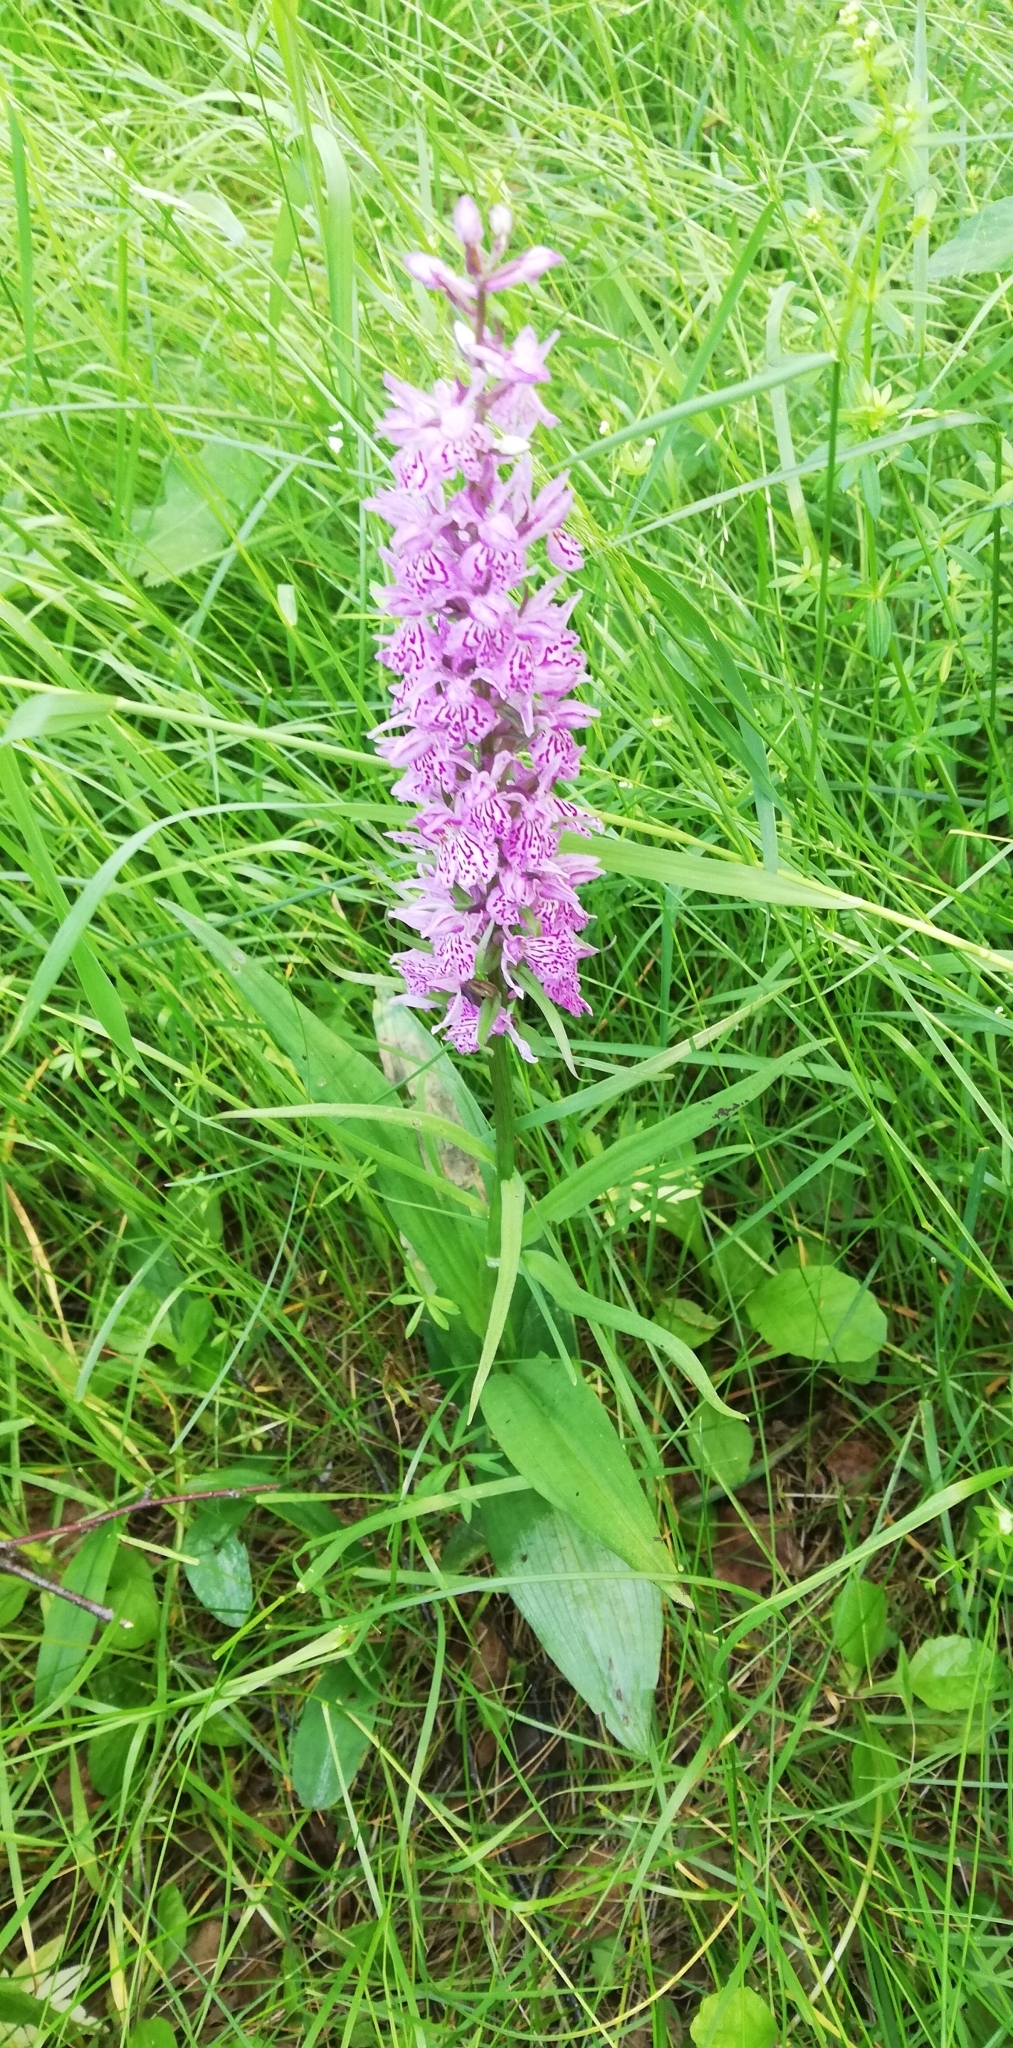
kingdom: Plantae
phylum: Tracheophyta
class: Liliopsida
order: Asparagales
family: Orchidaceae
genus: Dactylorhiza
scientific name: Dactylorhiza maculata
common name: Heath spotted-orchid
